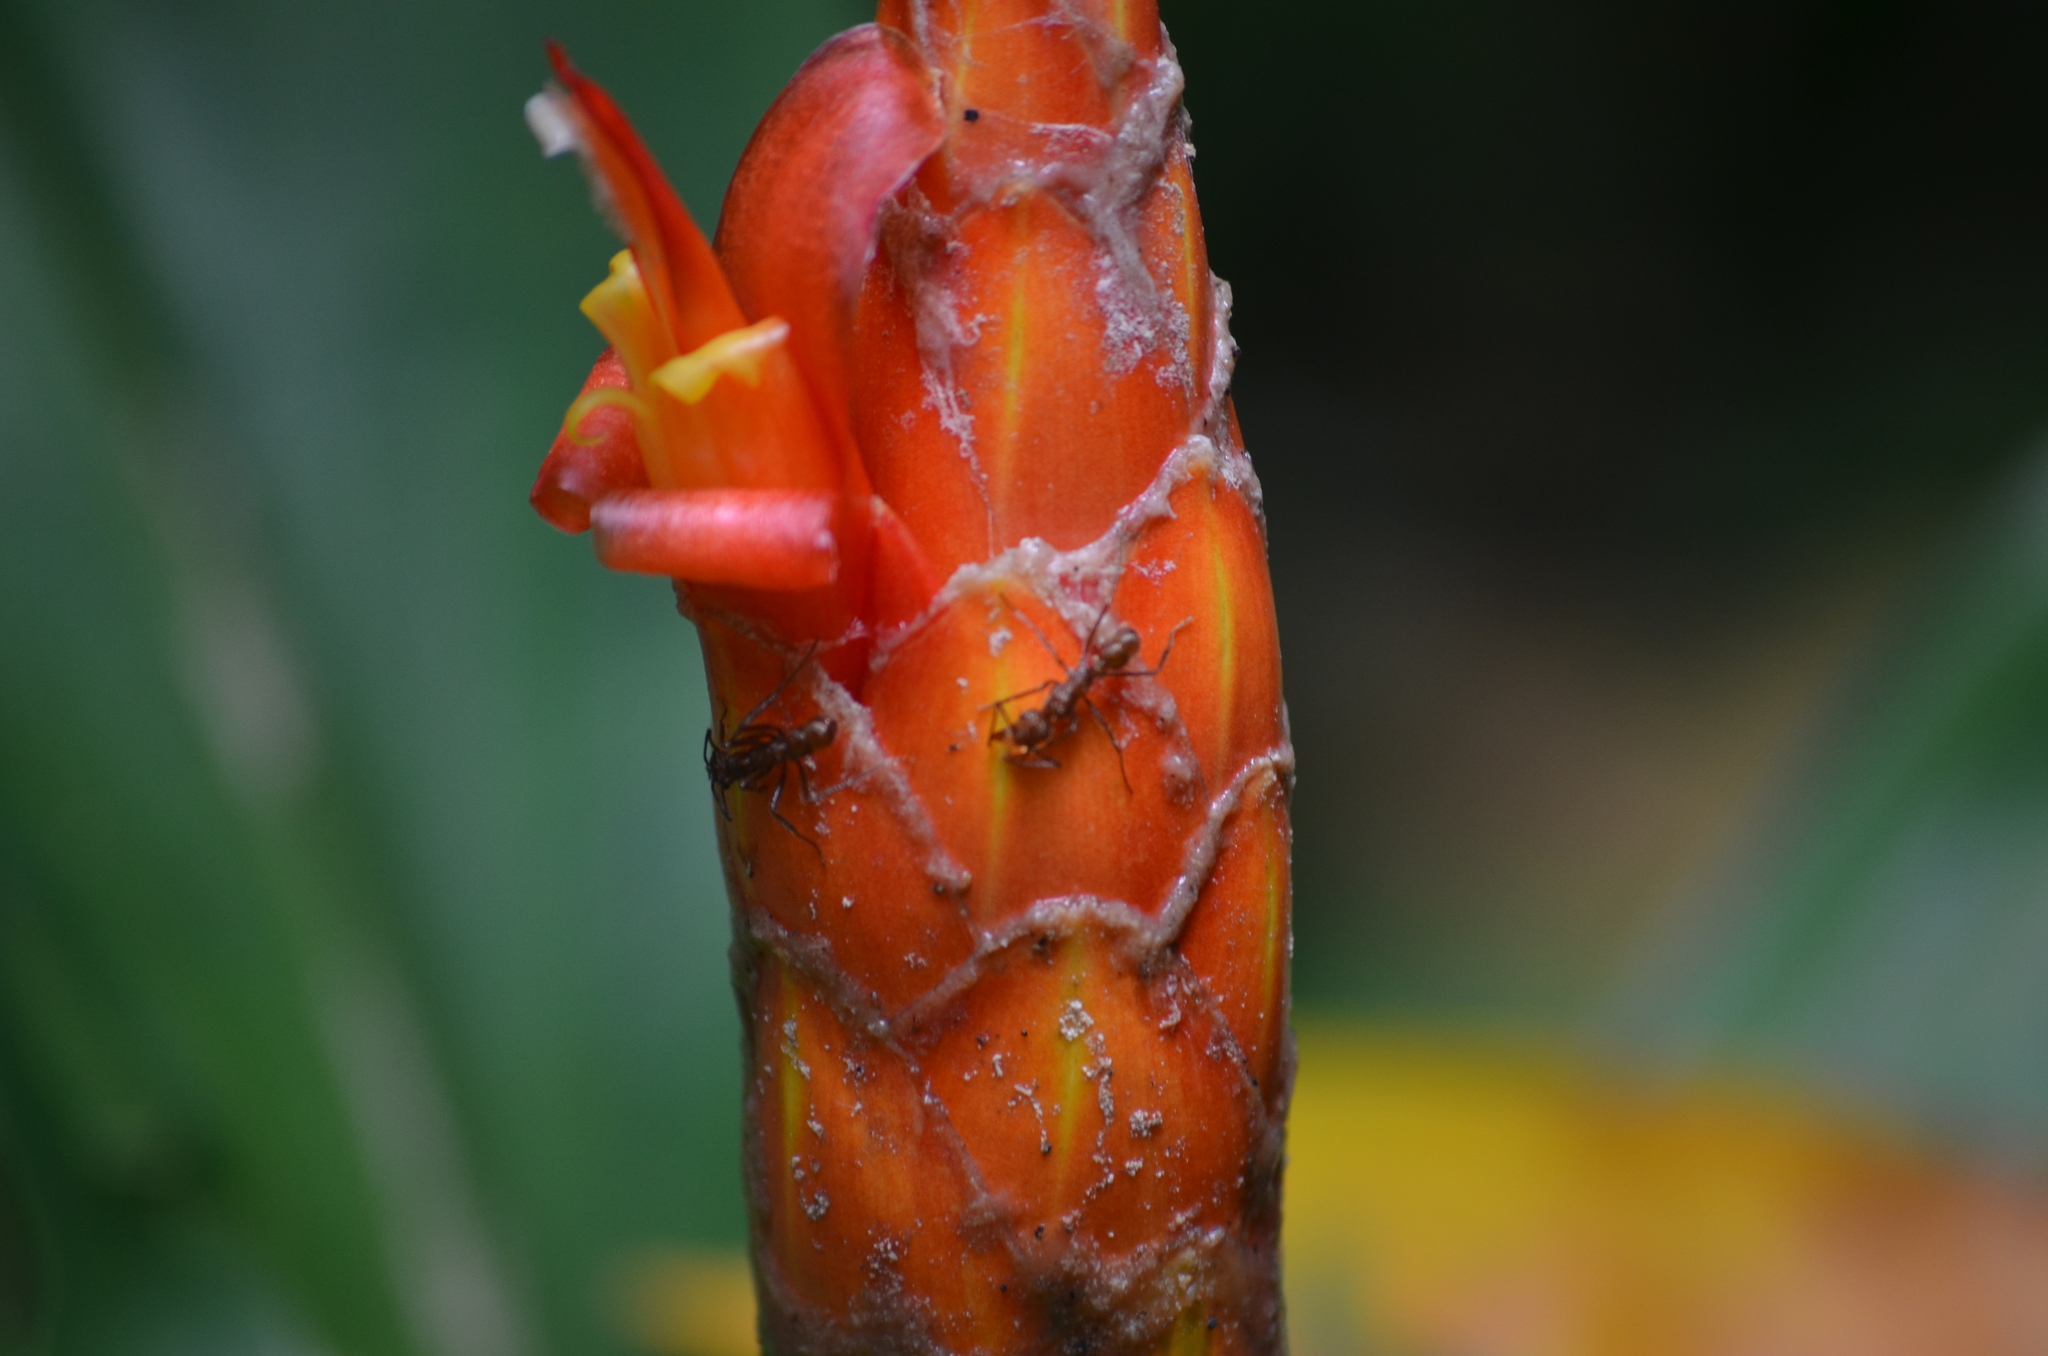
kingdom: Plantae
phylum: Tracheophyta
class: Liliopsida
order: Zingiberales
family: Costaceae
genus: Costus
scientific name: Costus pulverulentus
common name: Spiral ginger
